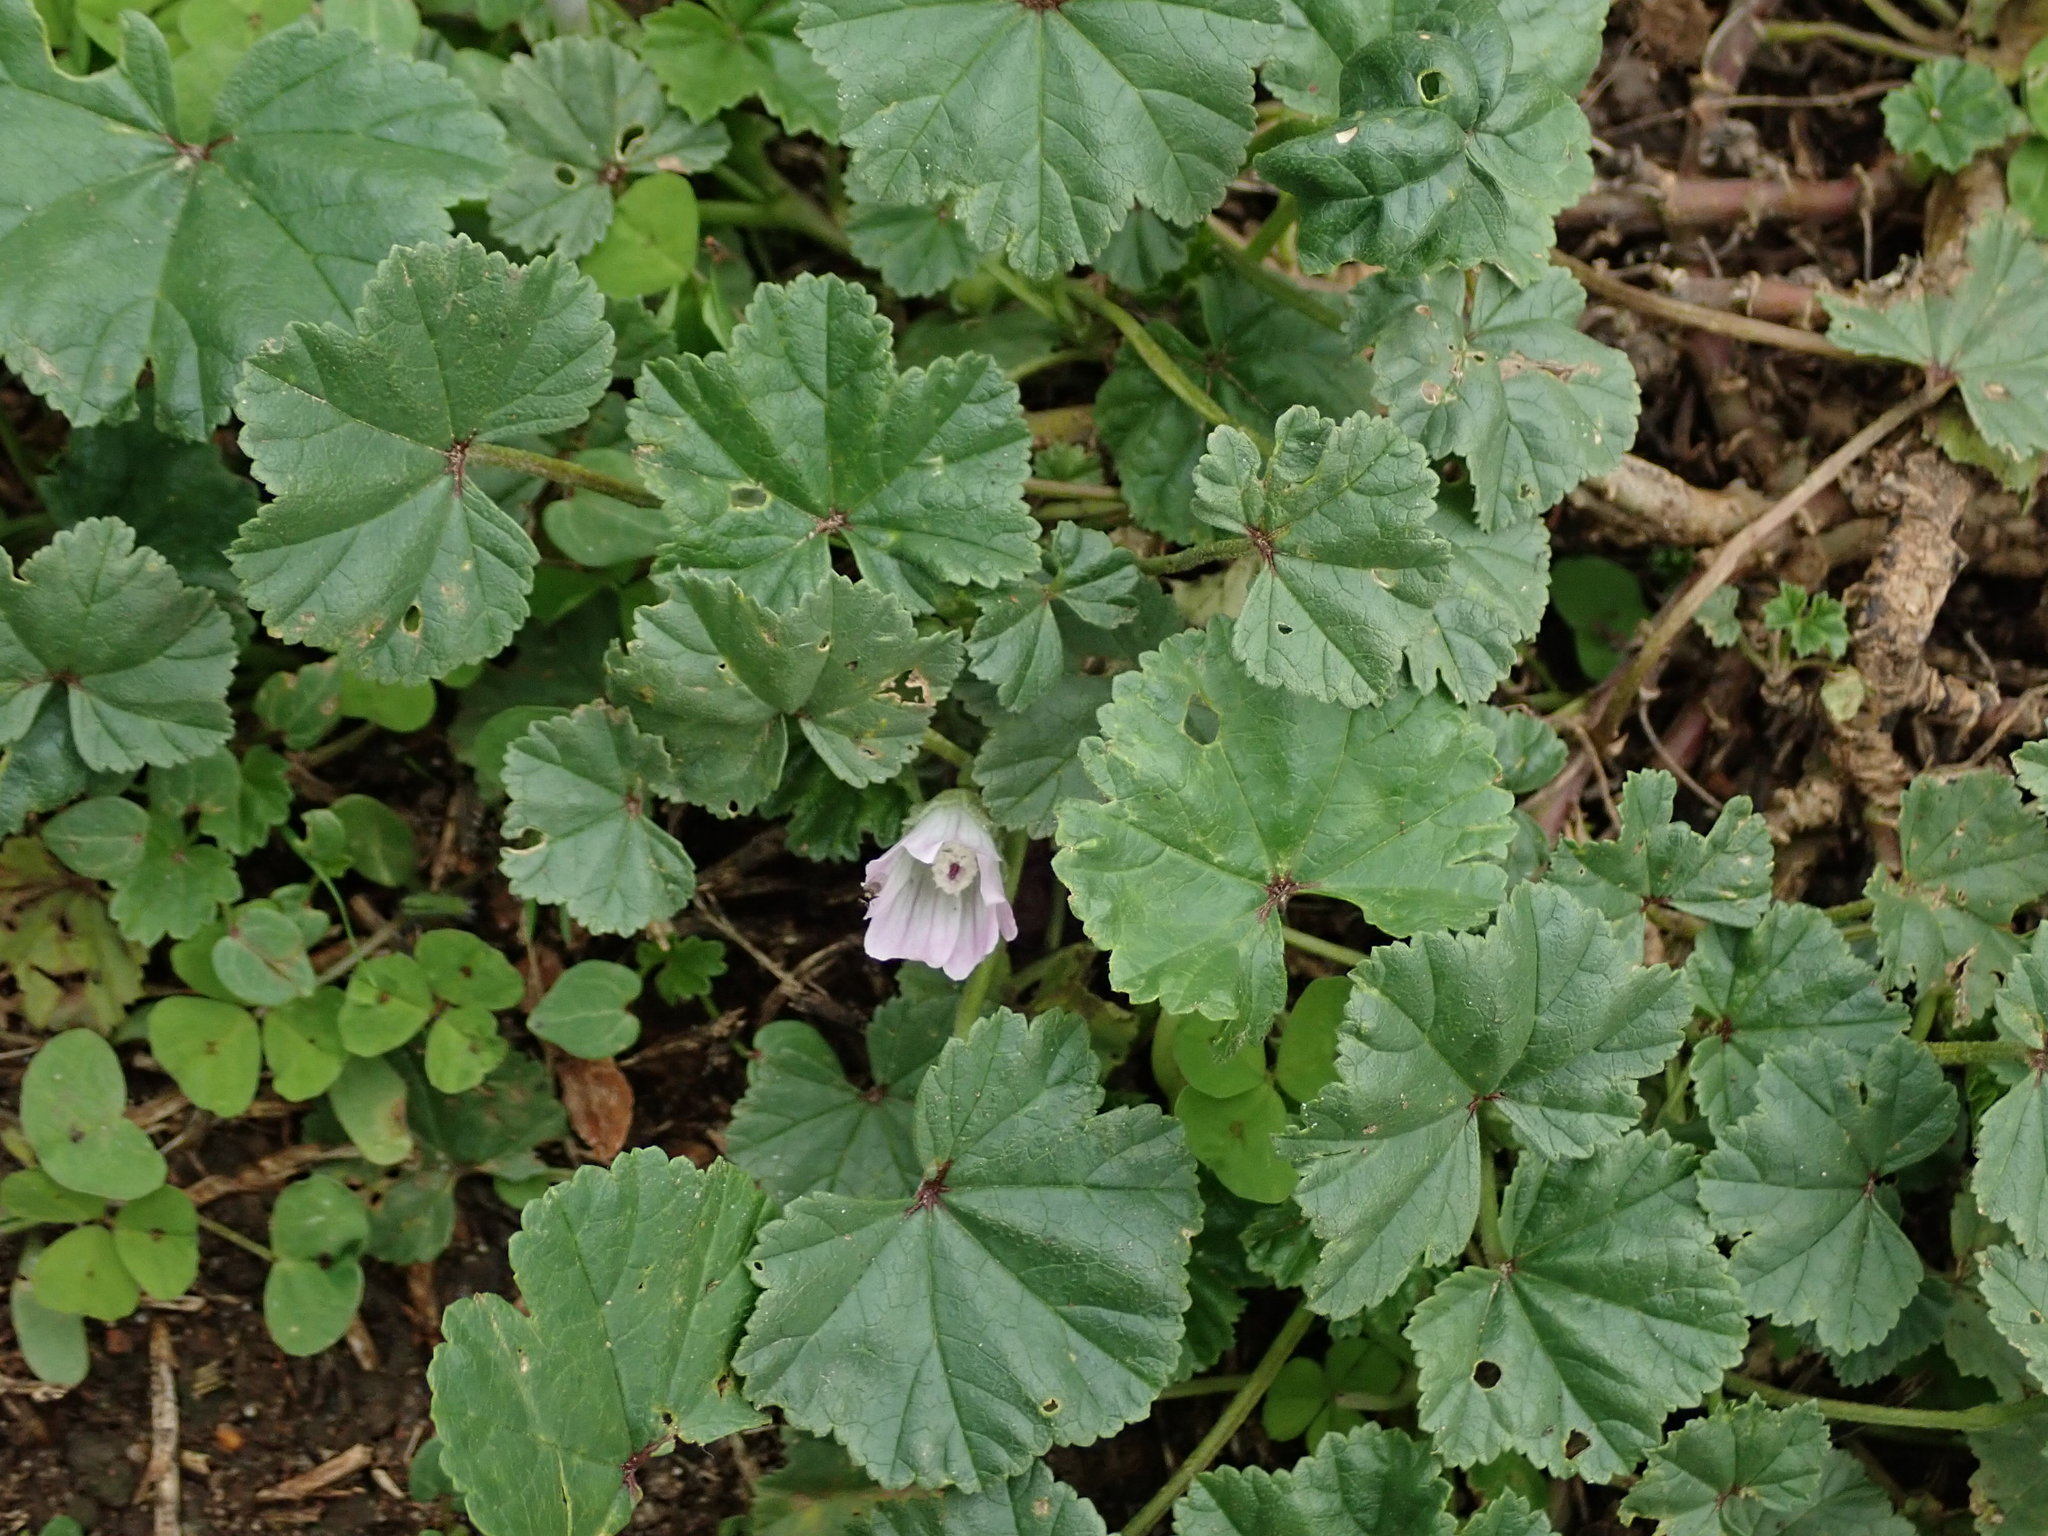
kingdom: Plantae
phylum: Tracheophyta
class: Magnoliopsida
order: Malvales
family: Malvaceae
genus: Malva
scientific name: Malva neglecta
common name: Common mallow
